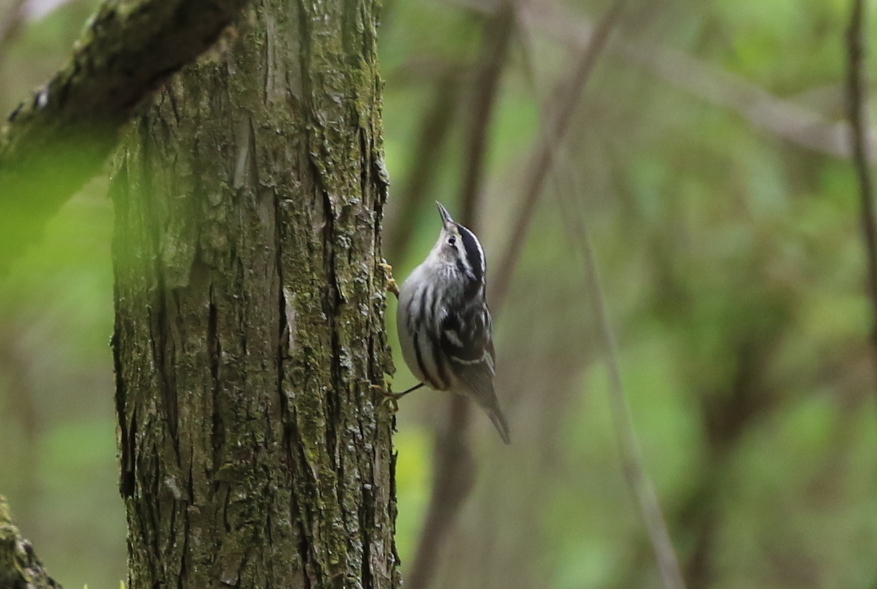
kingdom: Animalia
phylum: Chordata
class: Aves
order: Passeriformes
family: Parulidae
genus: Mniotilta
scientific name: Mniotilta varia
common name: Black-and-white warbler
